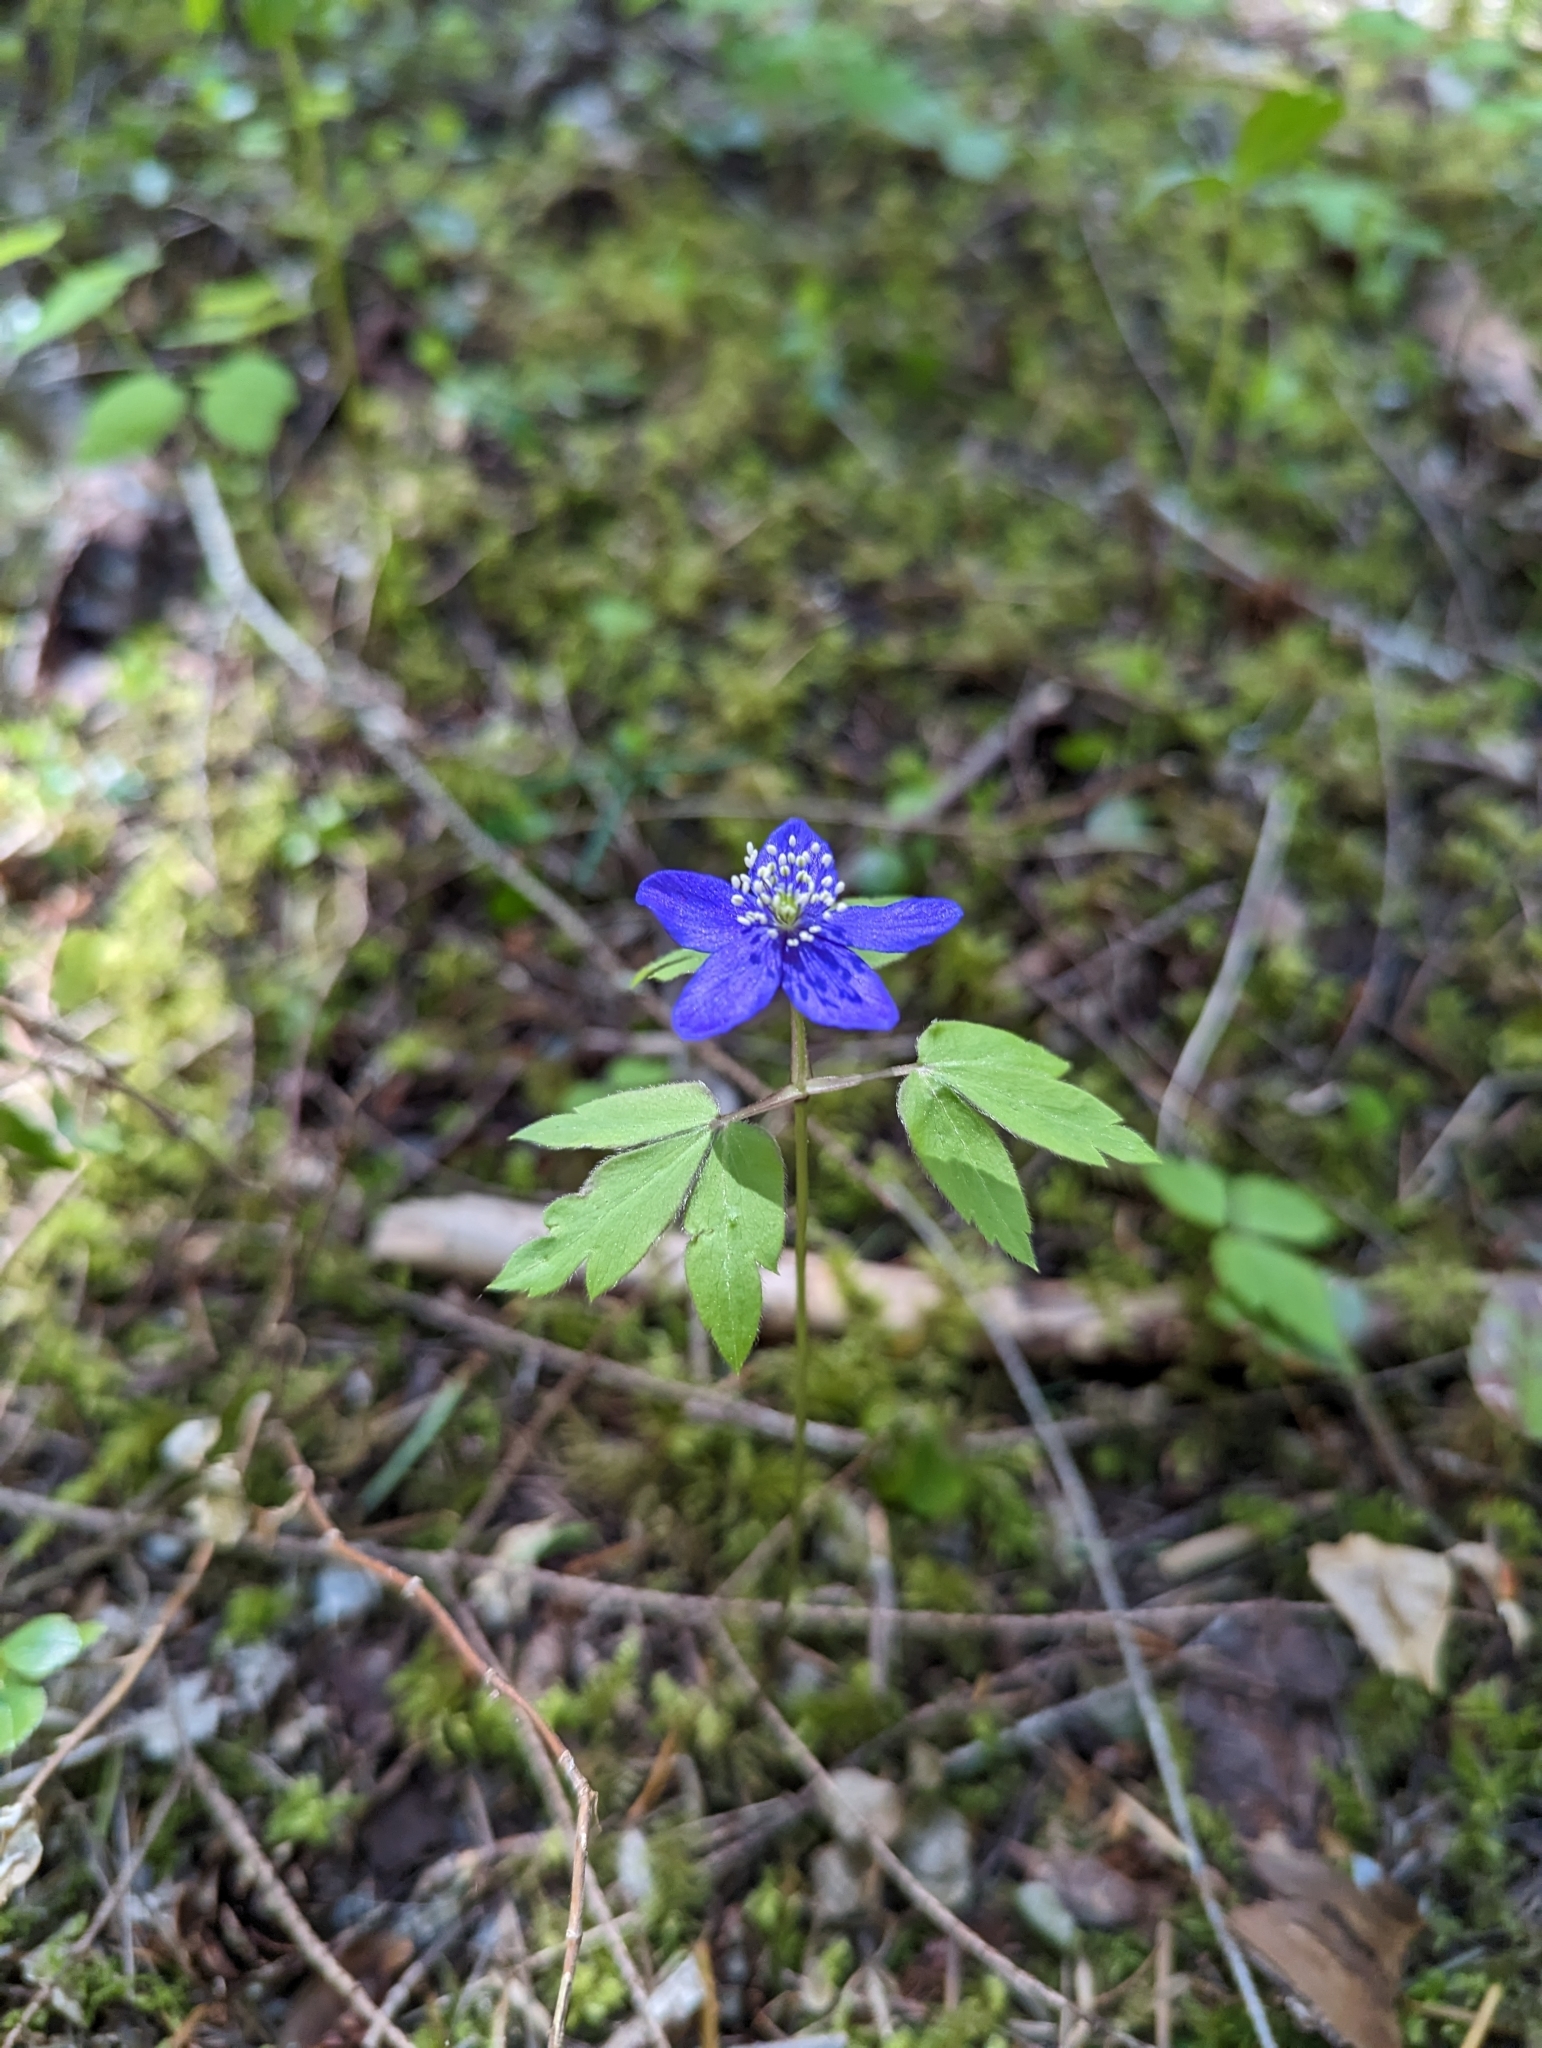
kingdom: Plantae
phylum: Tracheophyta
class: Magnoliopsida
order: Ranunculales
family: Ranunculaceae
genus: Anemone
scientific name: Anemone oregana
